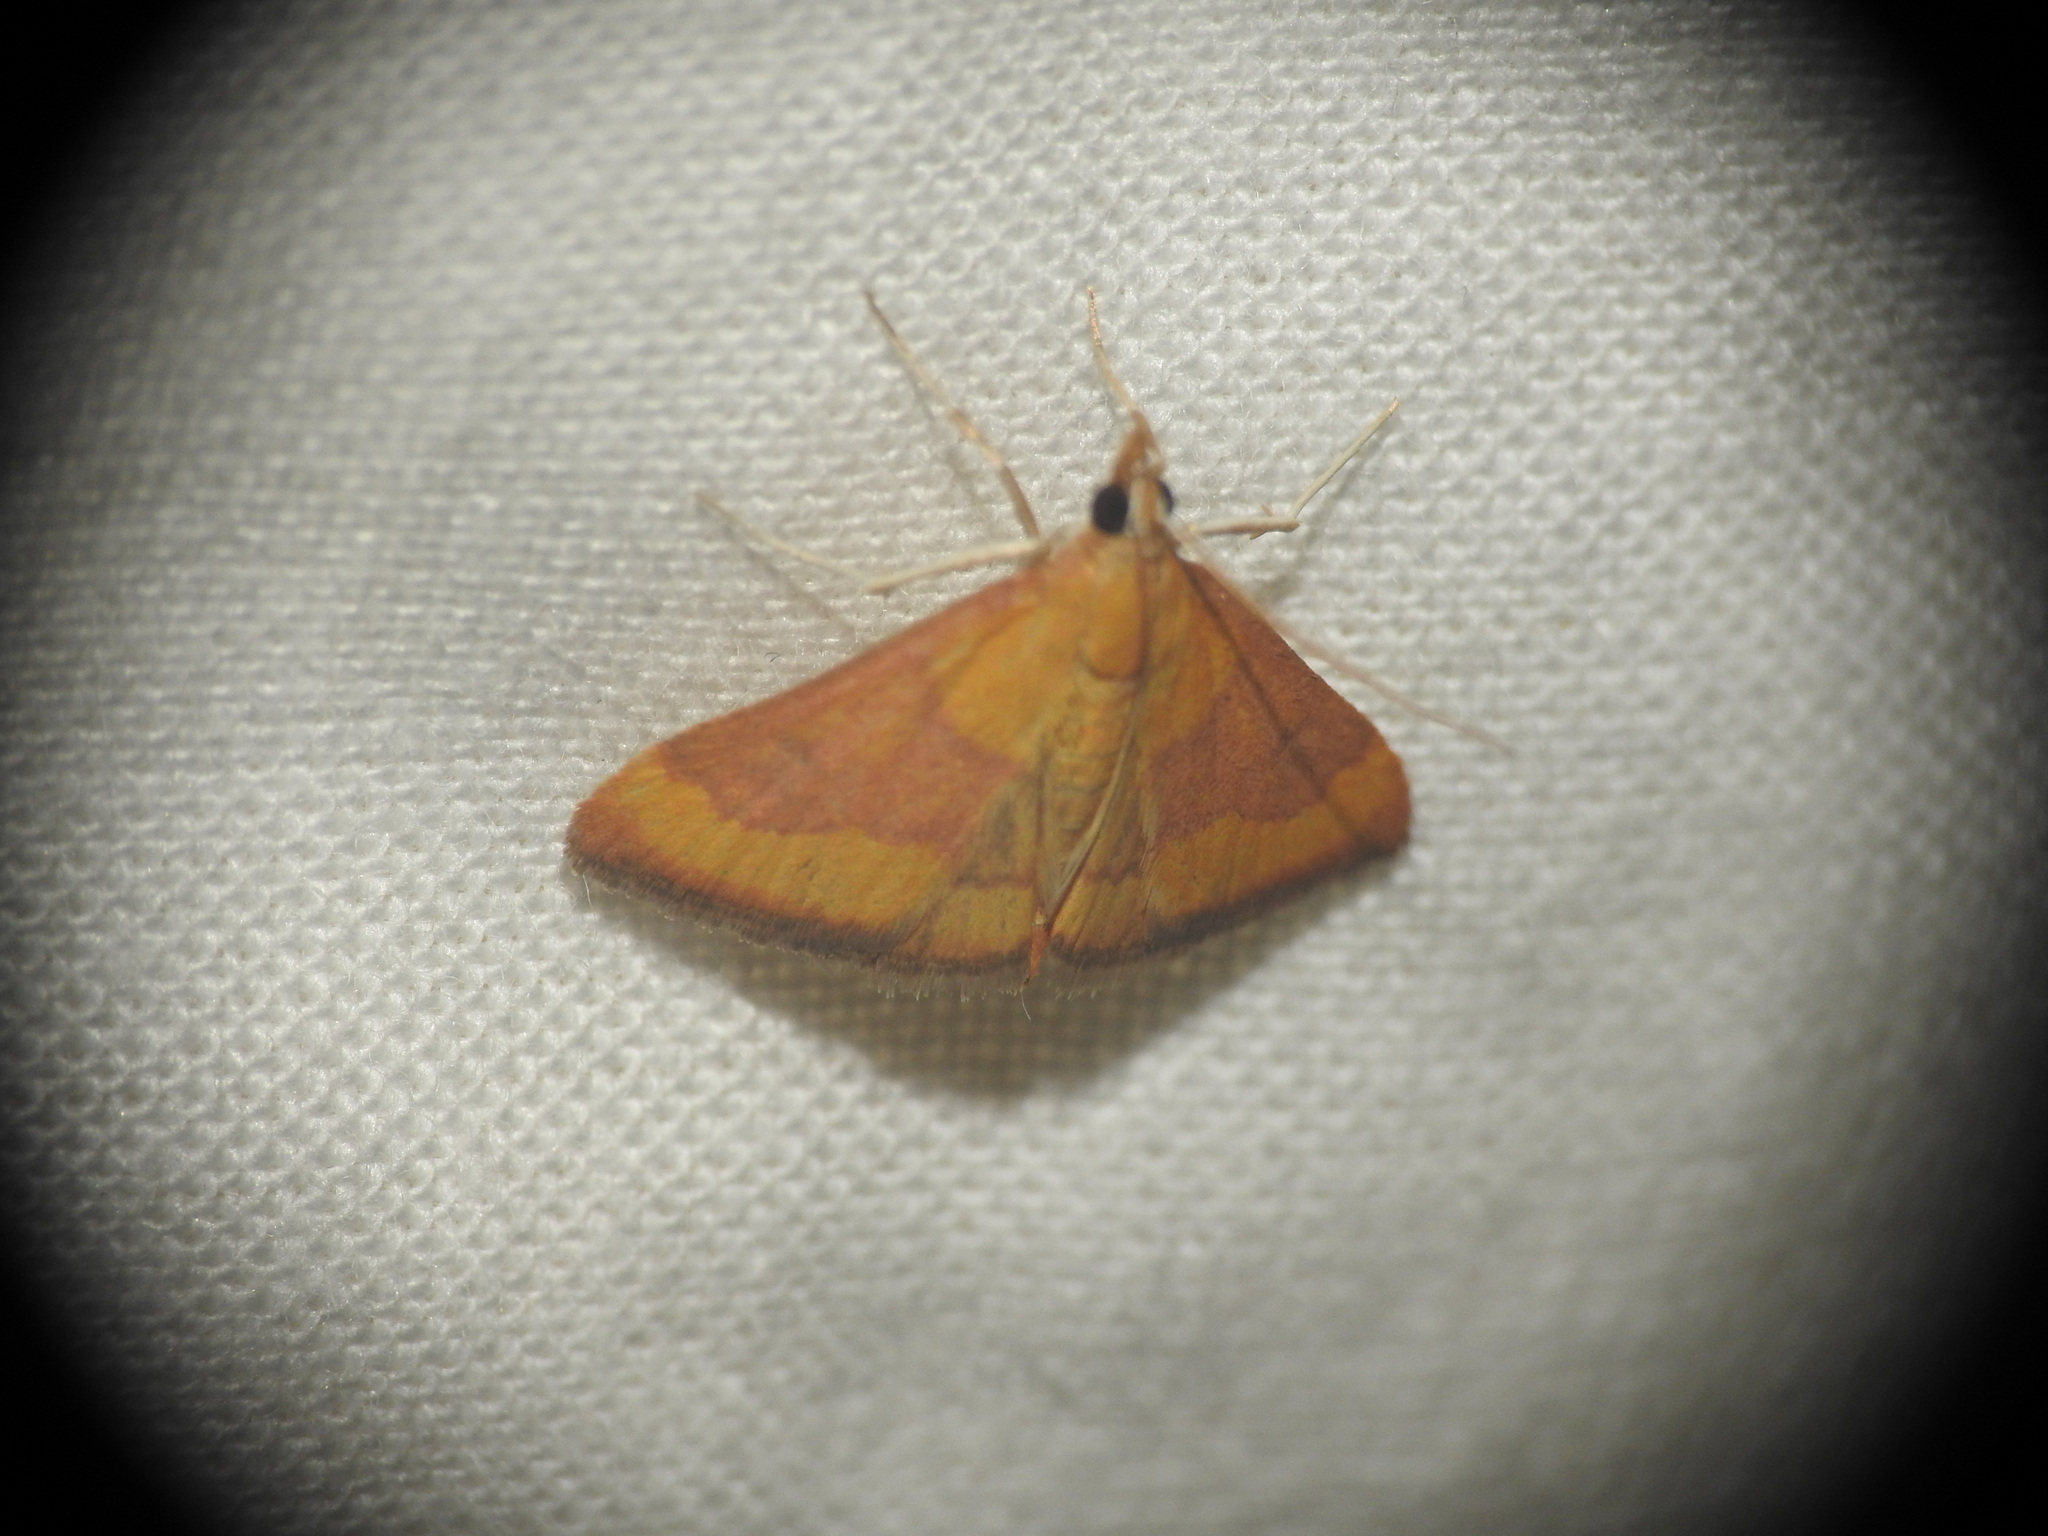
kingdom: Animalia
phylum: Arthropoda
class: Insecta
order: Lepidoptera
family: Crambidae
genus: Pyrausta
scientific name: Pyrausta castalis
